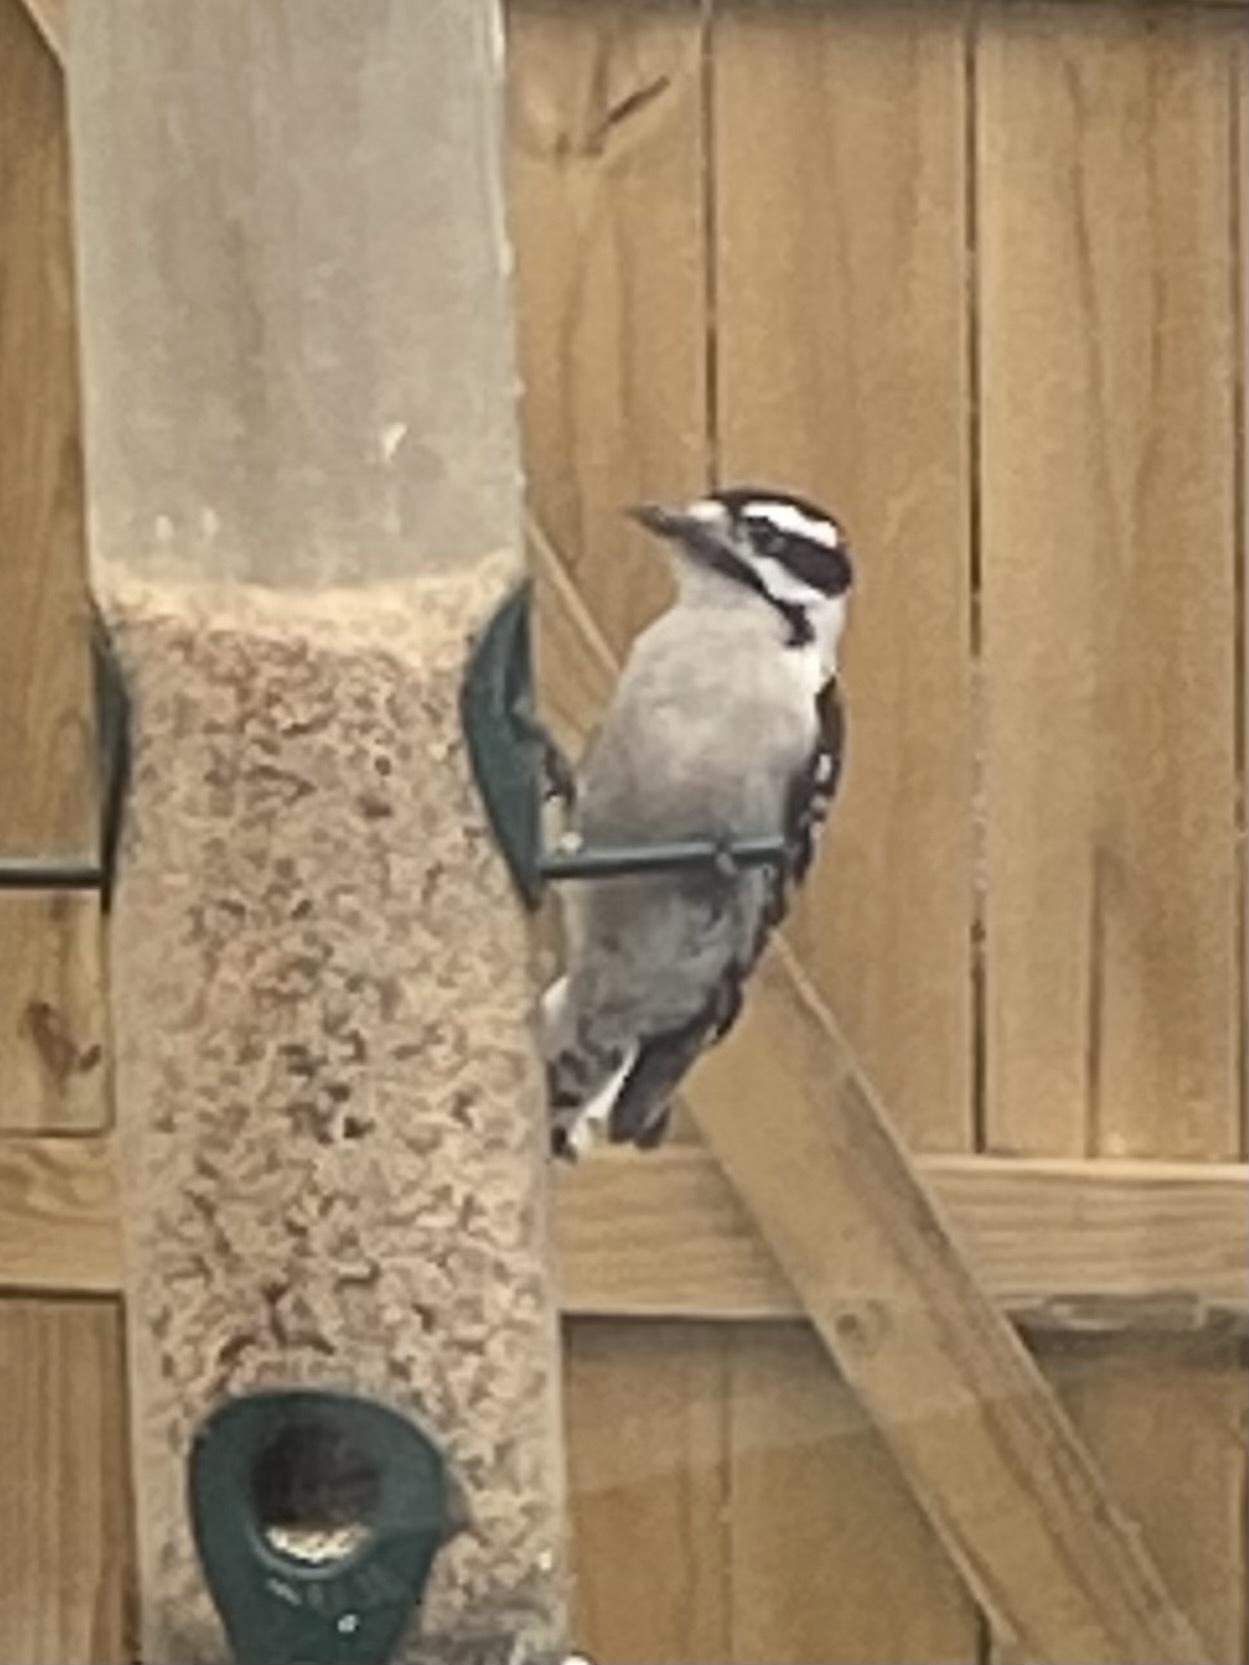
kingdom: Animalia
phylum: Chordata
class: Aves
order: Piciformes
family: Picidae
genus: Dryobates
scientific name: Dryobates pubescens
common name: Downy woodpecker
